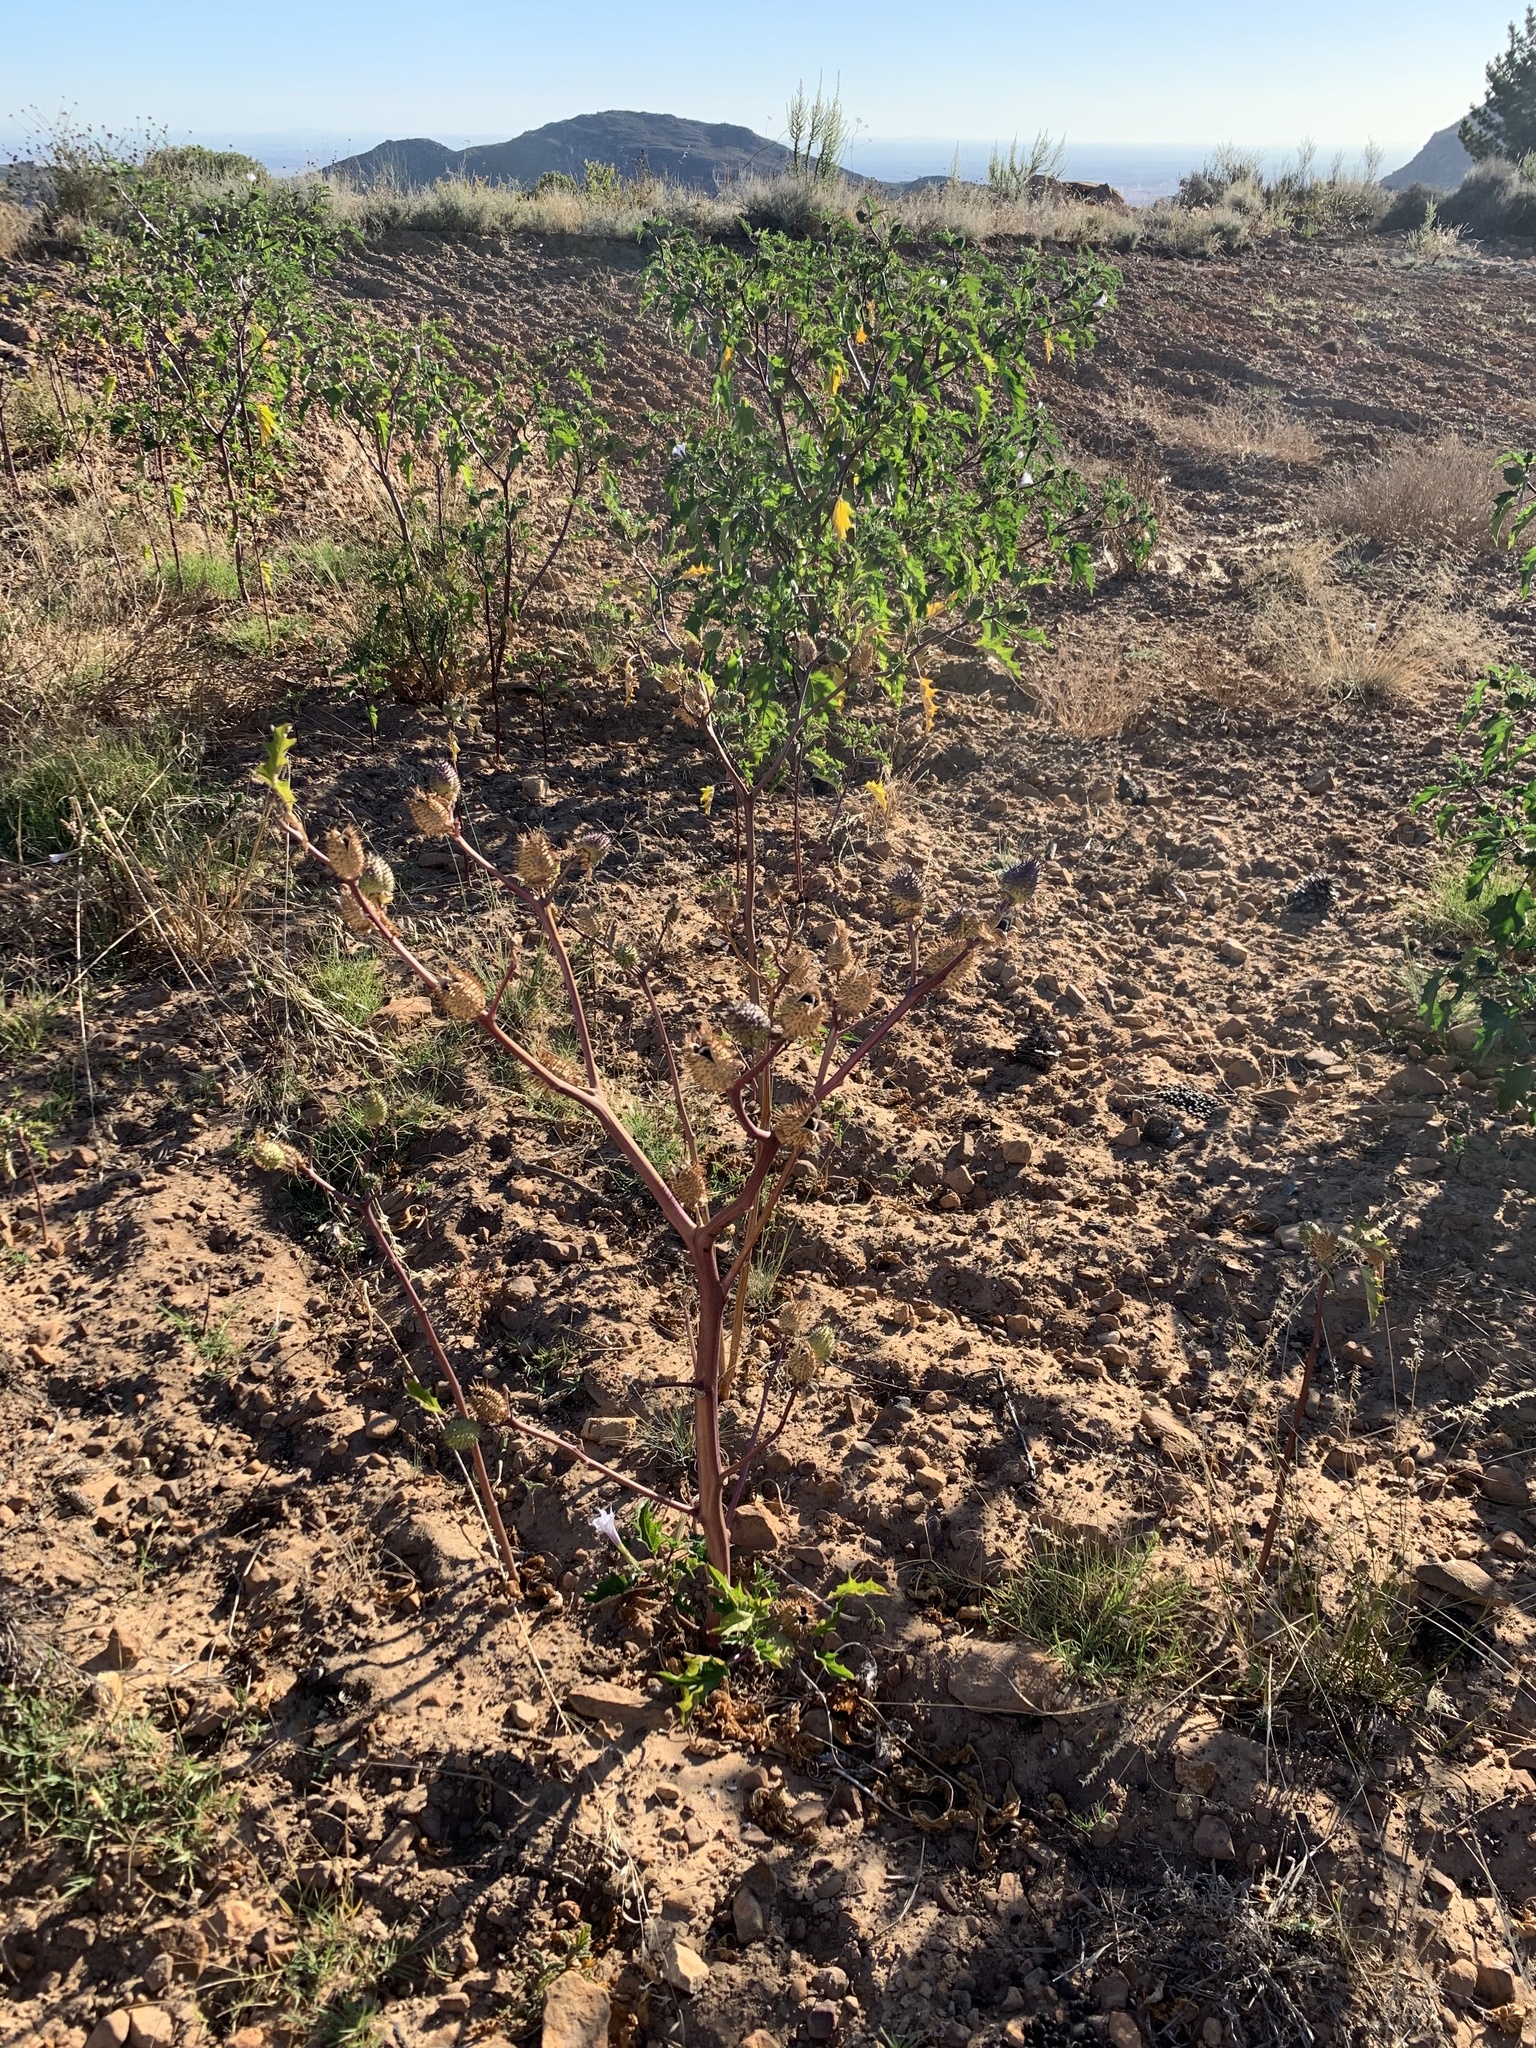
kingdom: Plantae
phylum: Tracheophyta
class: Magnoliopsida
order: Solanales
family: Solanaceae
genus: Datura
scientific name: Datura stramonium
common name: Thorn-apple
